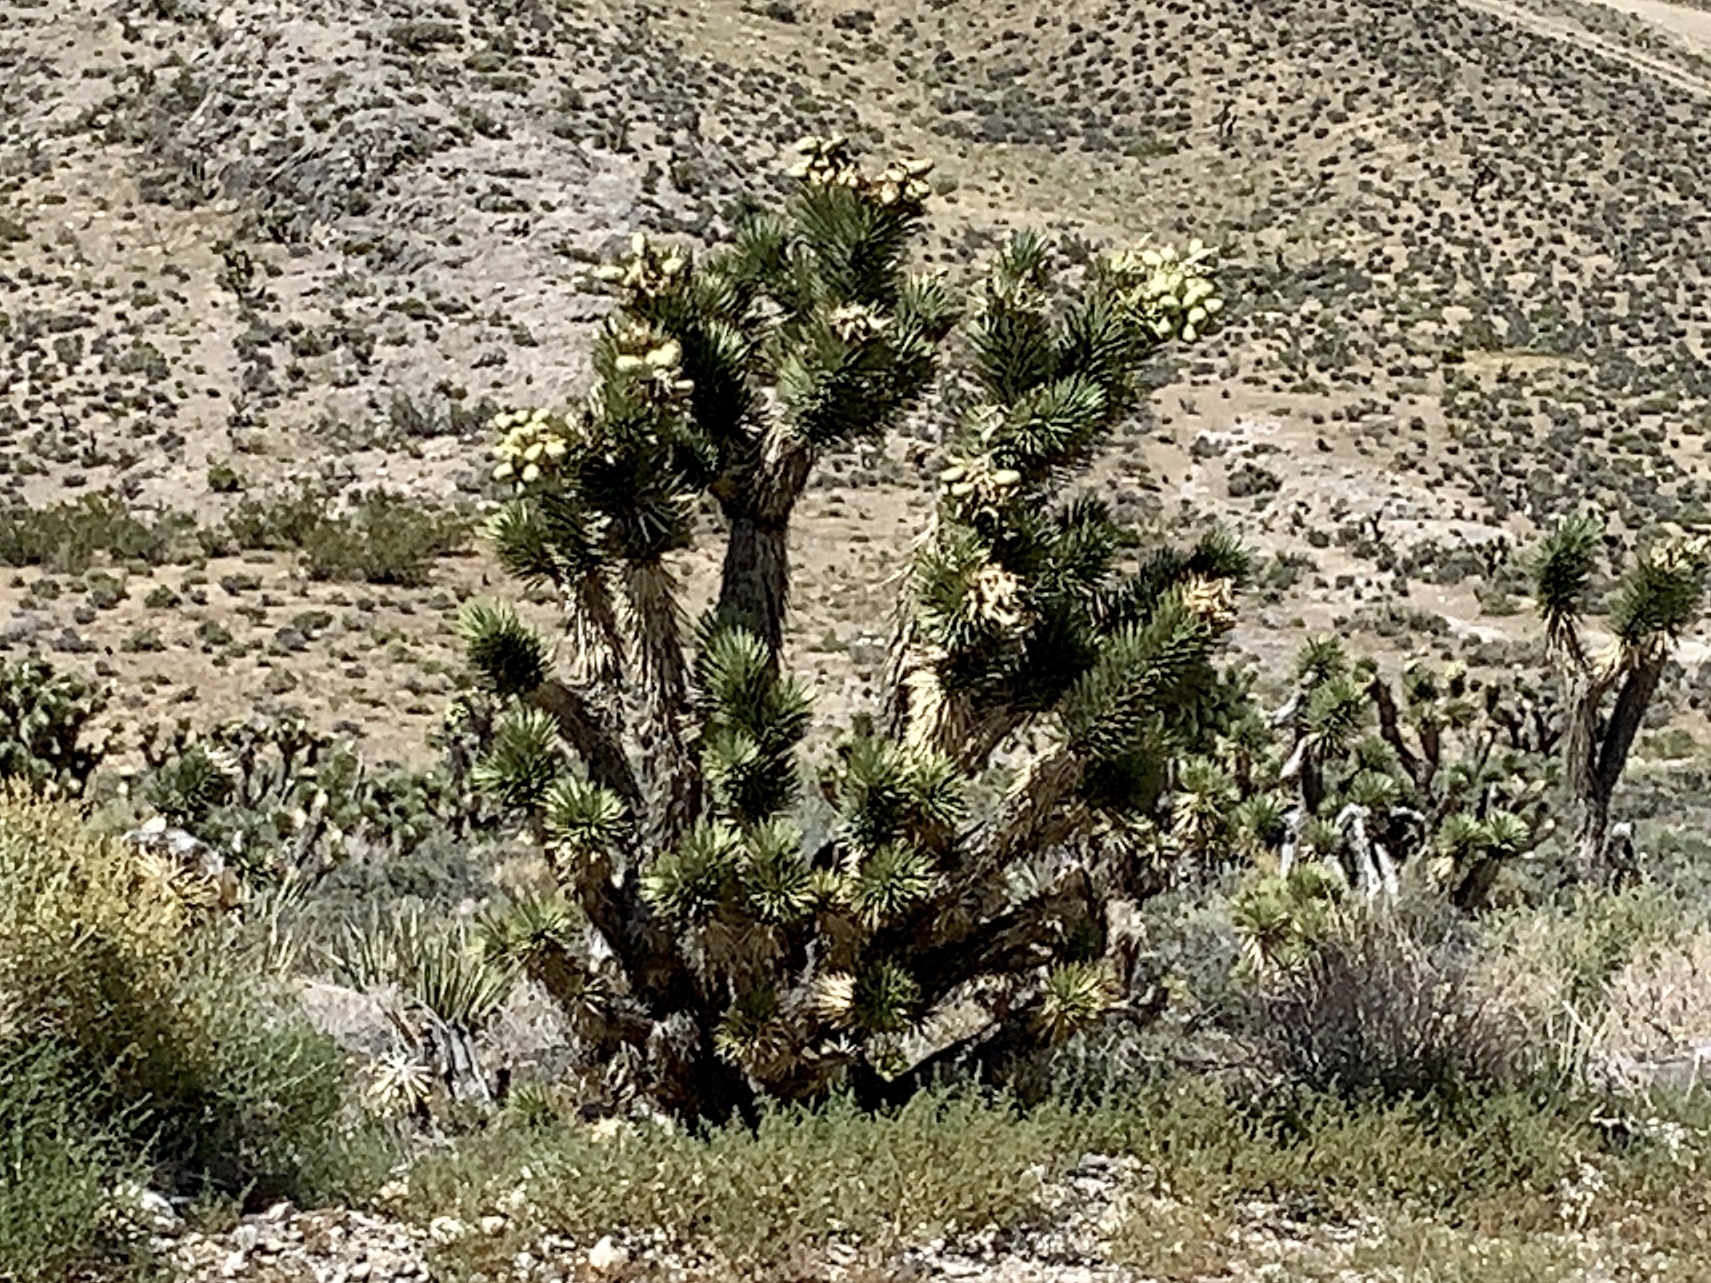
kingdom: Plantae
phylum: Tracheophyta
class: Liliopsida
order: Asparagales
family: Asparagaceae
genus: Yucca
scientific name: Yucca brevifolia
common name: Joshua tree
